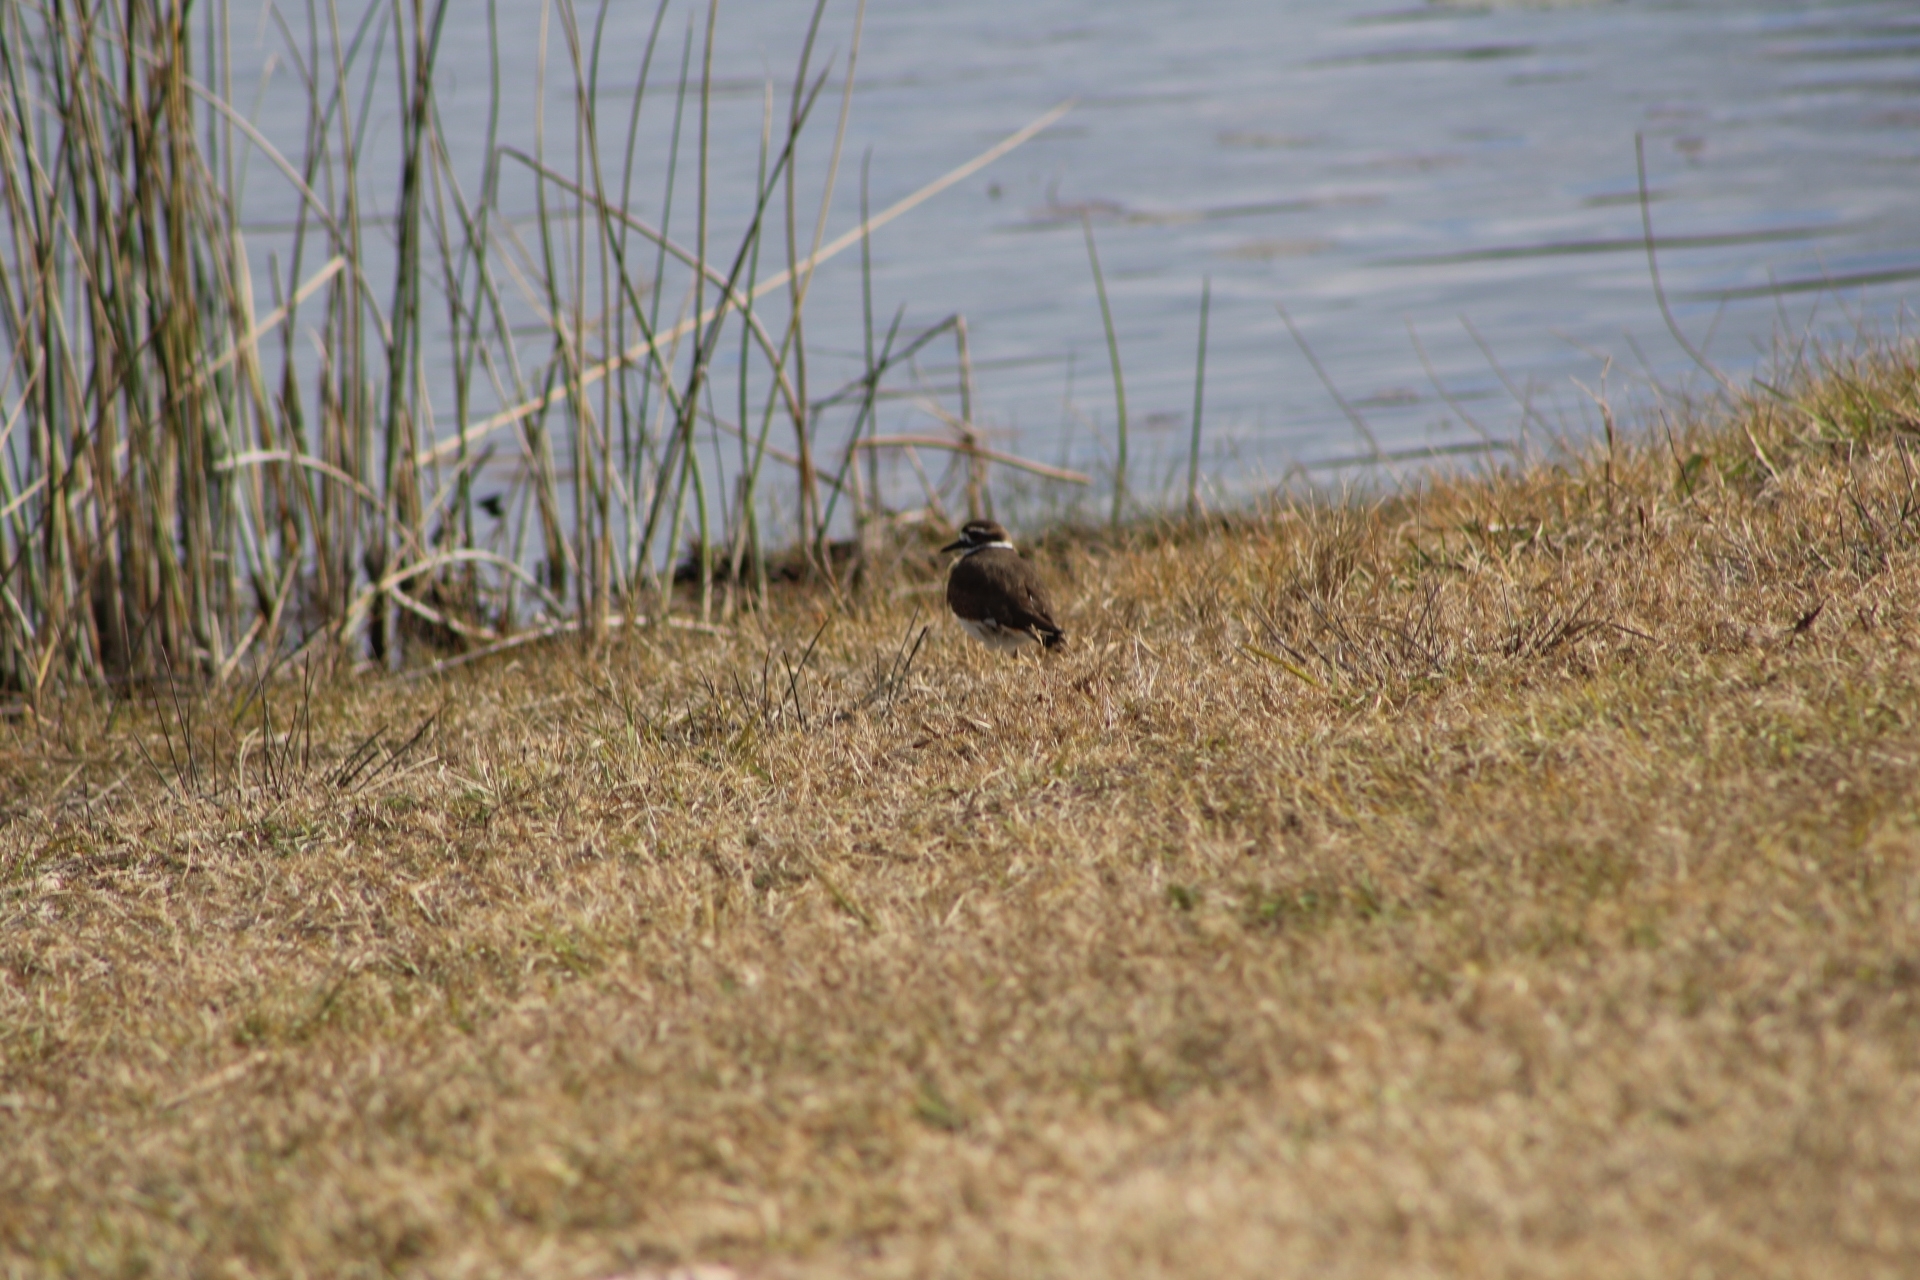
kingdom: Animalia
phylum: Chordata
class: Aves
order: Charadriiformes
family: Charadriidae
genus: Charadrius
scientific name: Charadrius vociferus
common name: Killdeer
